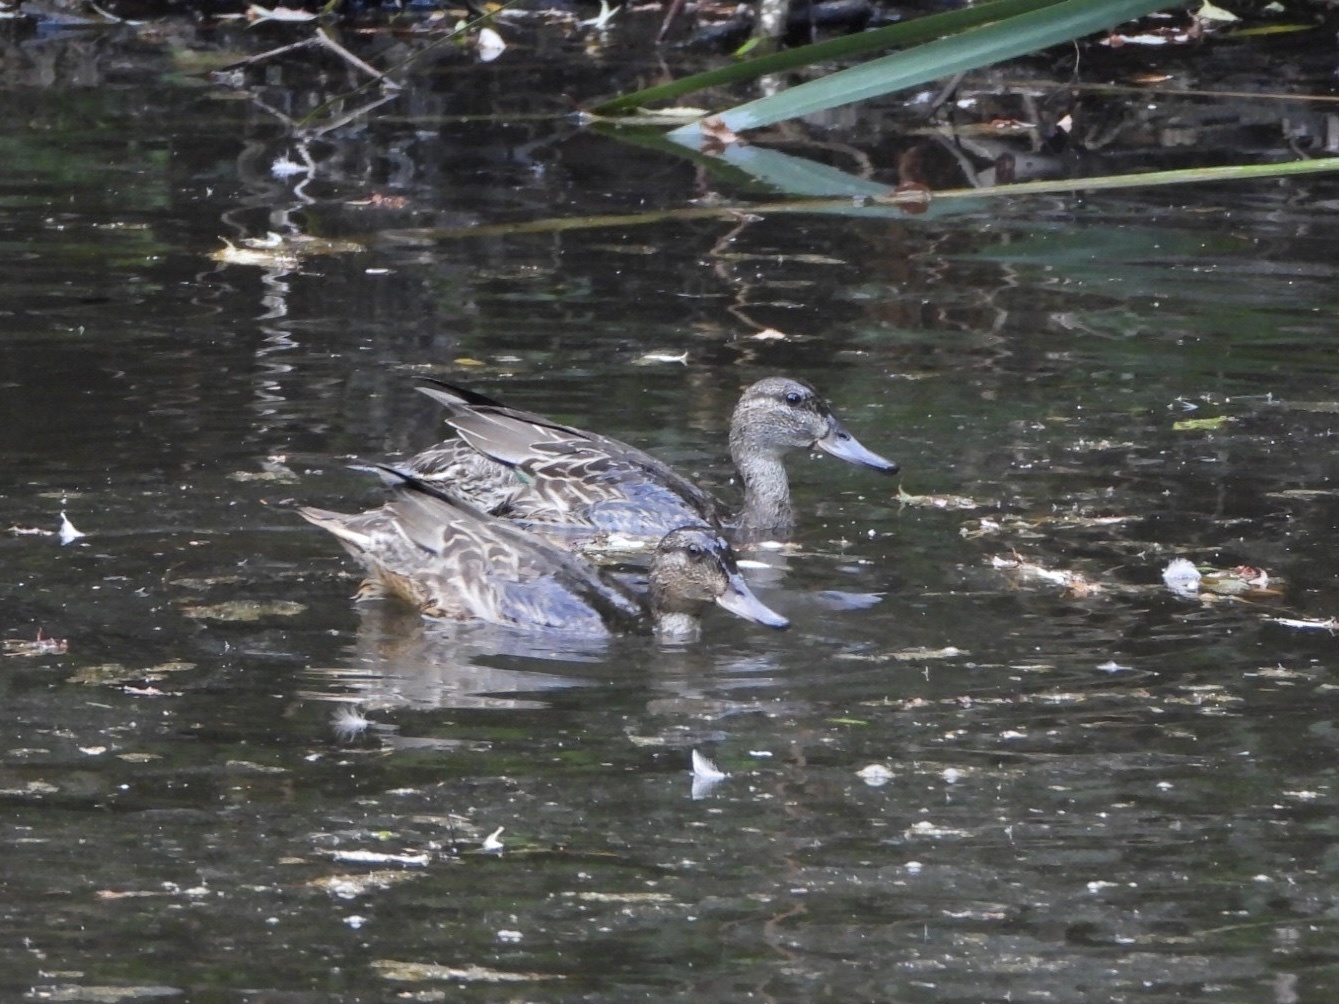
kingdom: Animalia
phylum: Chordata
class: Aves
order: Anseriformes
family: Anatidae
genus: Anas
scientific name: Anas crecca
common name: Eurasian teal
